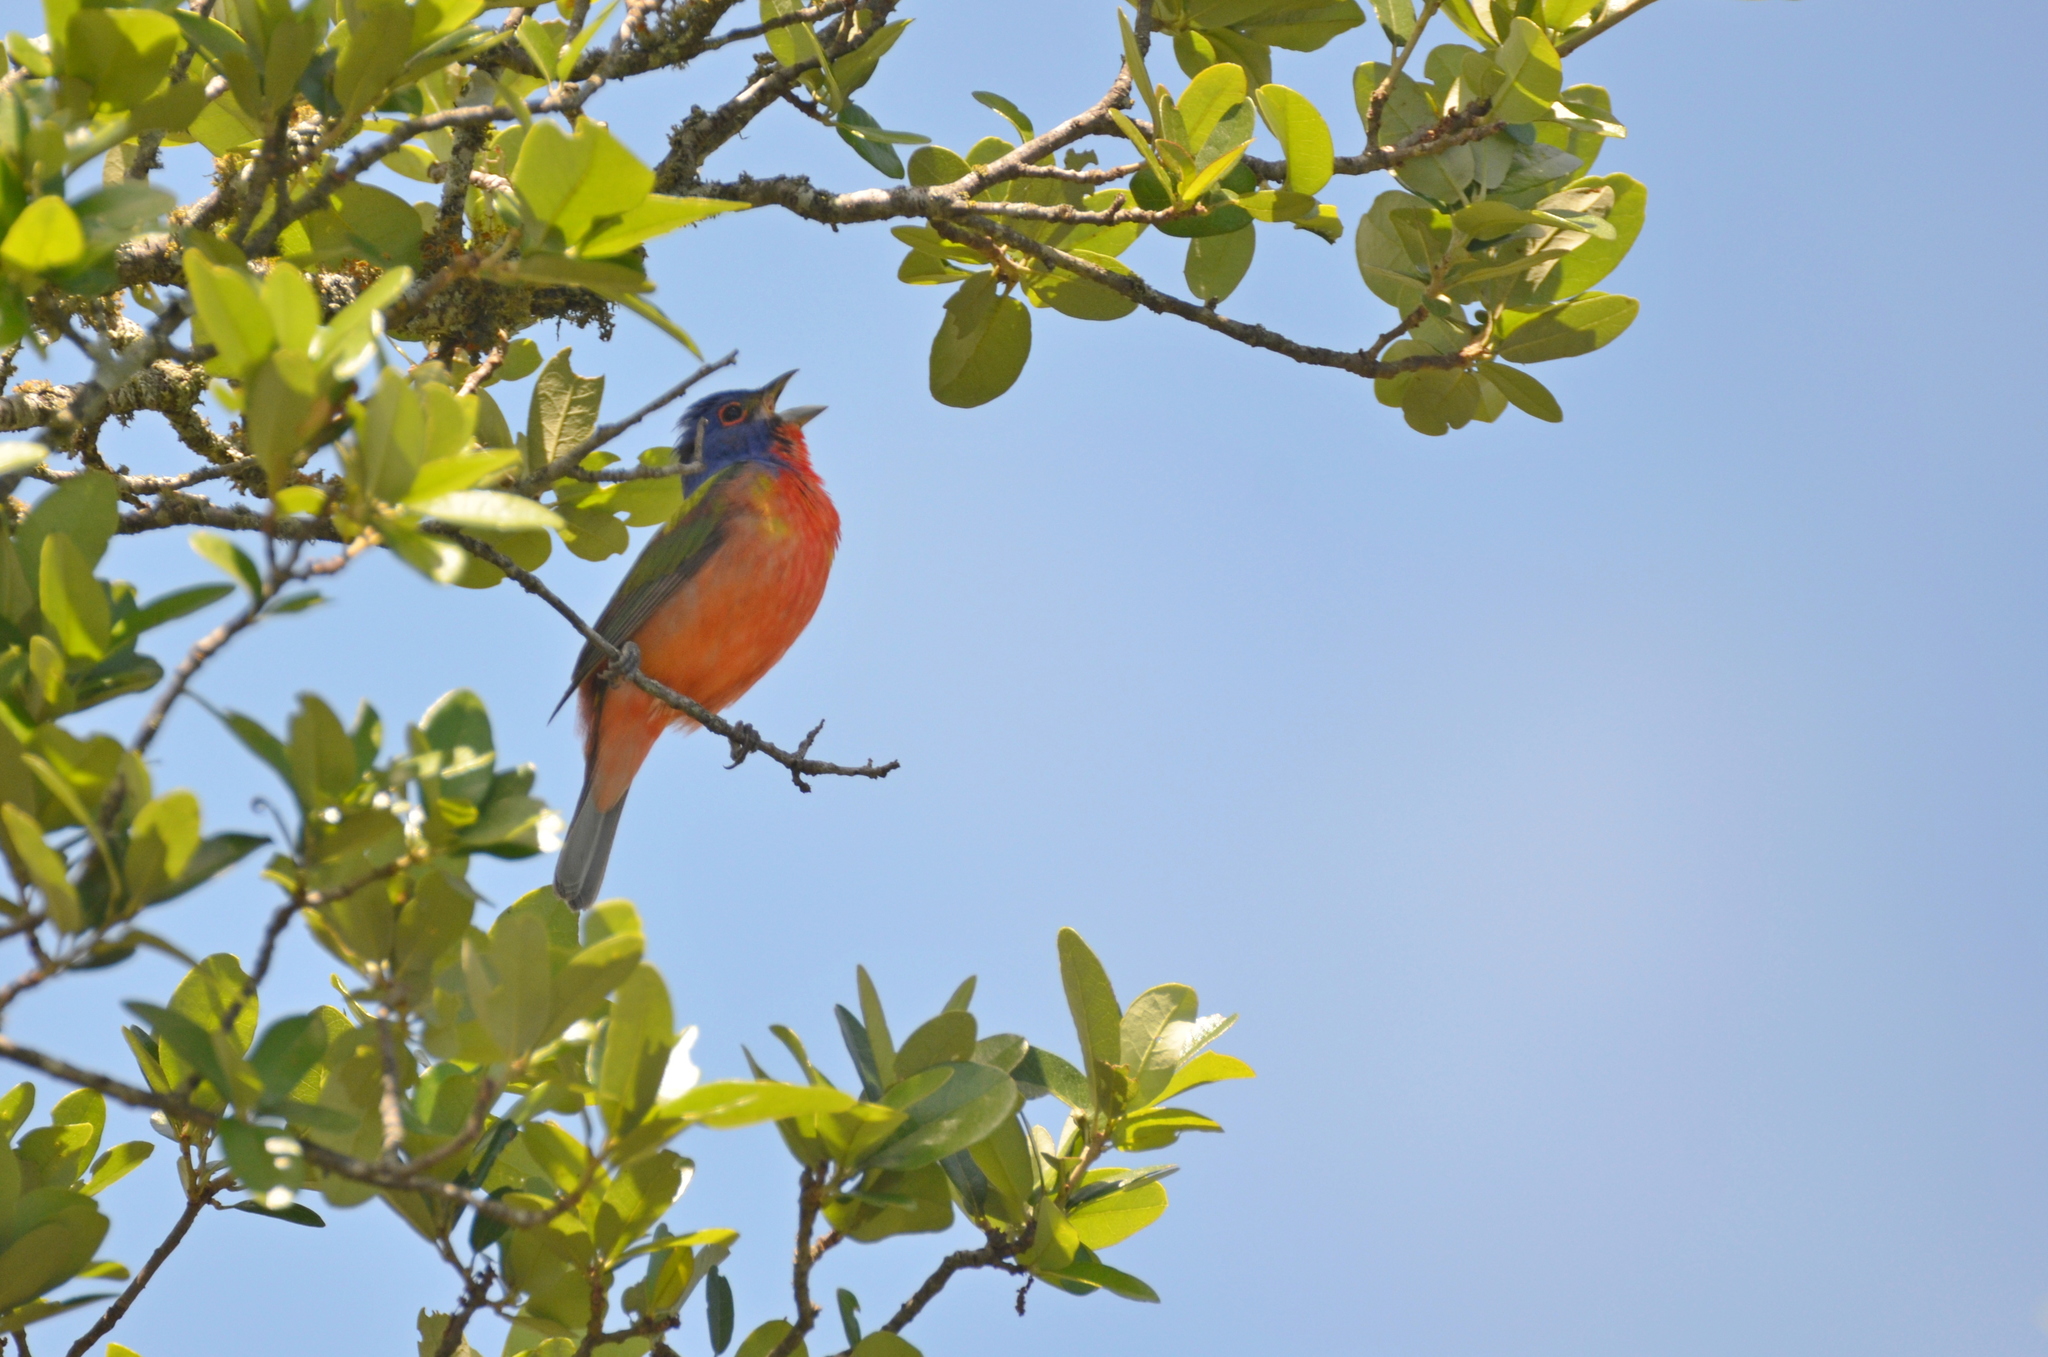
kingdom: Animalia
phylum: Chordata
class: Aves
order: Passeriformes
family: Cardinalidae
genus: Passerina
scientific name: Passerina ciris
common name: Painted bunting
